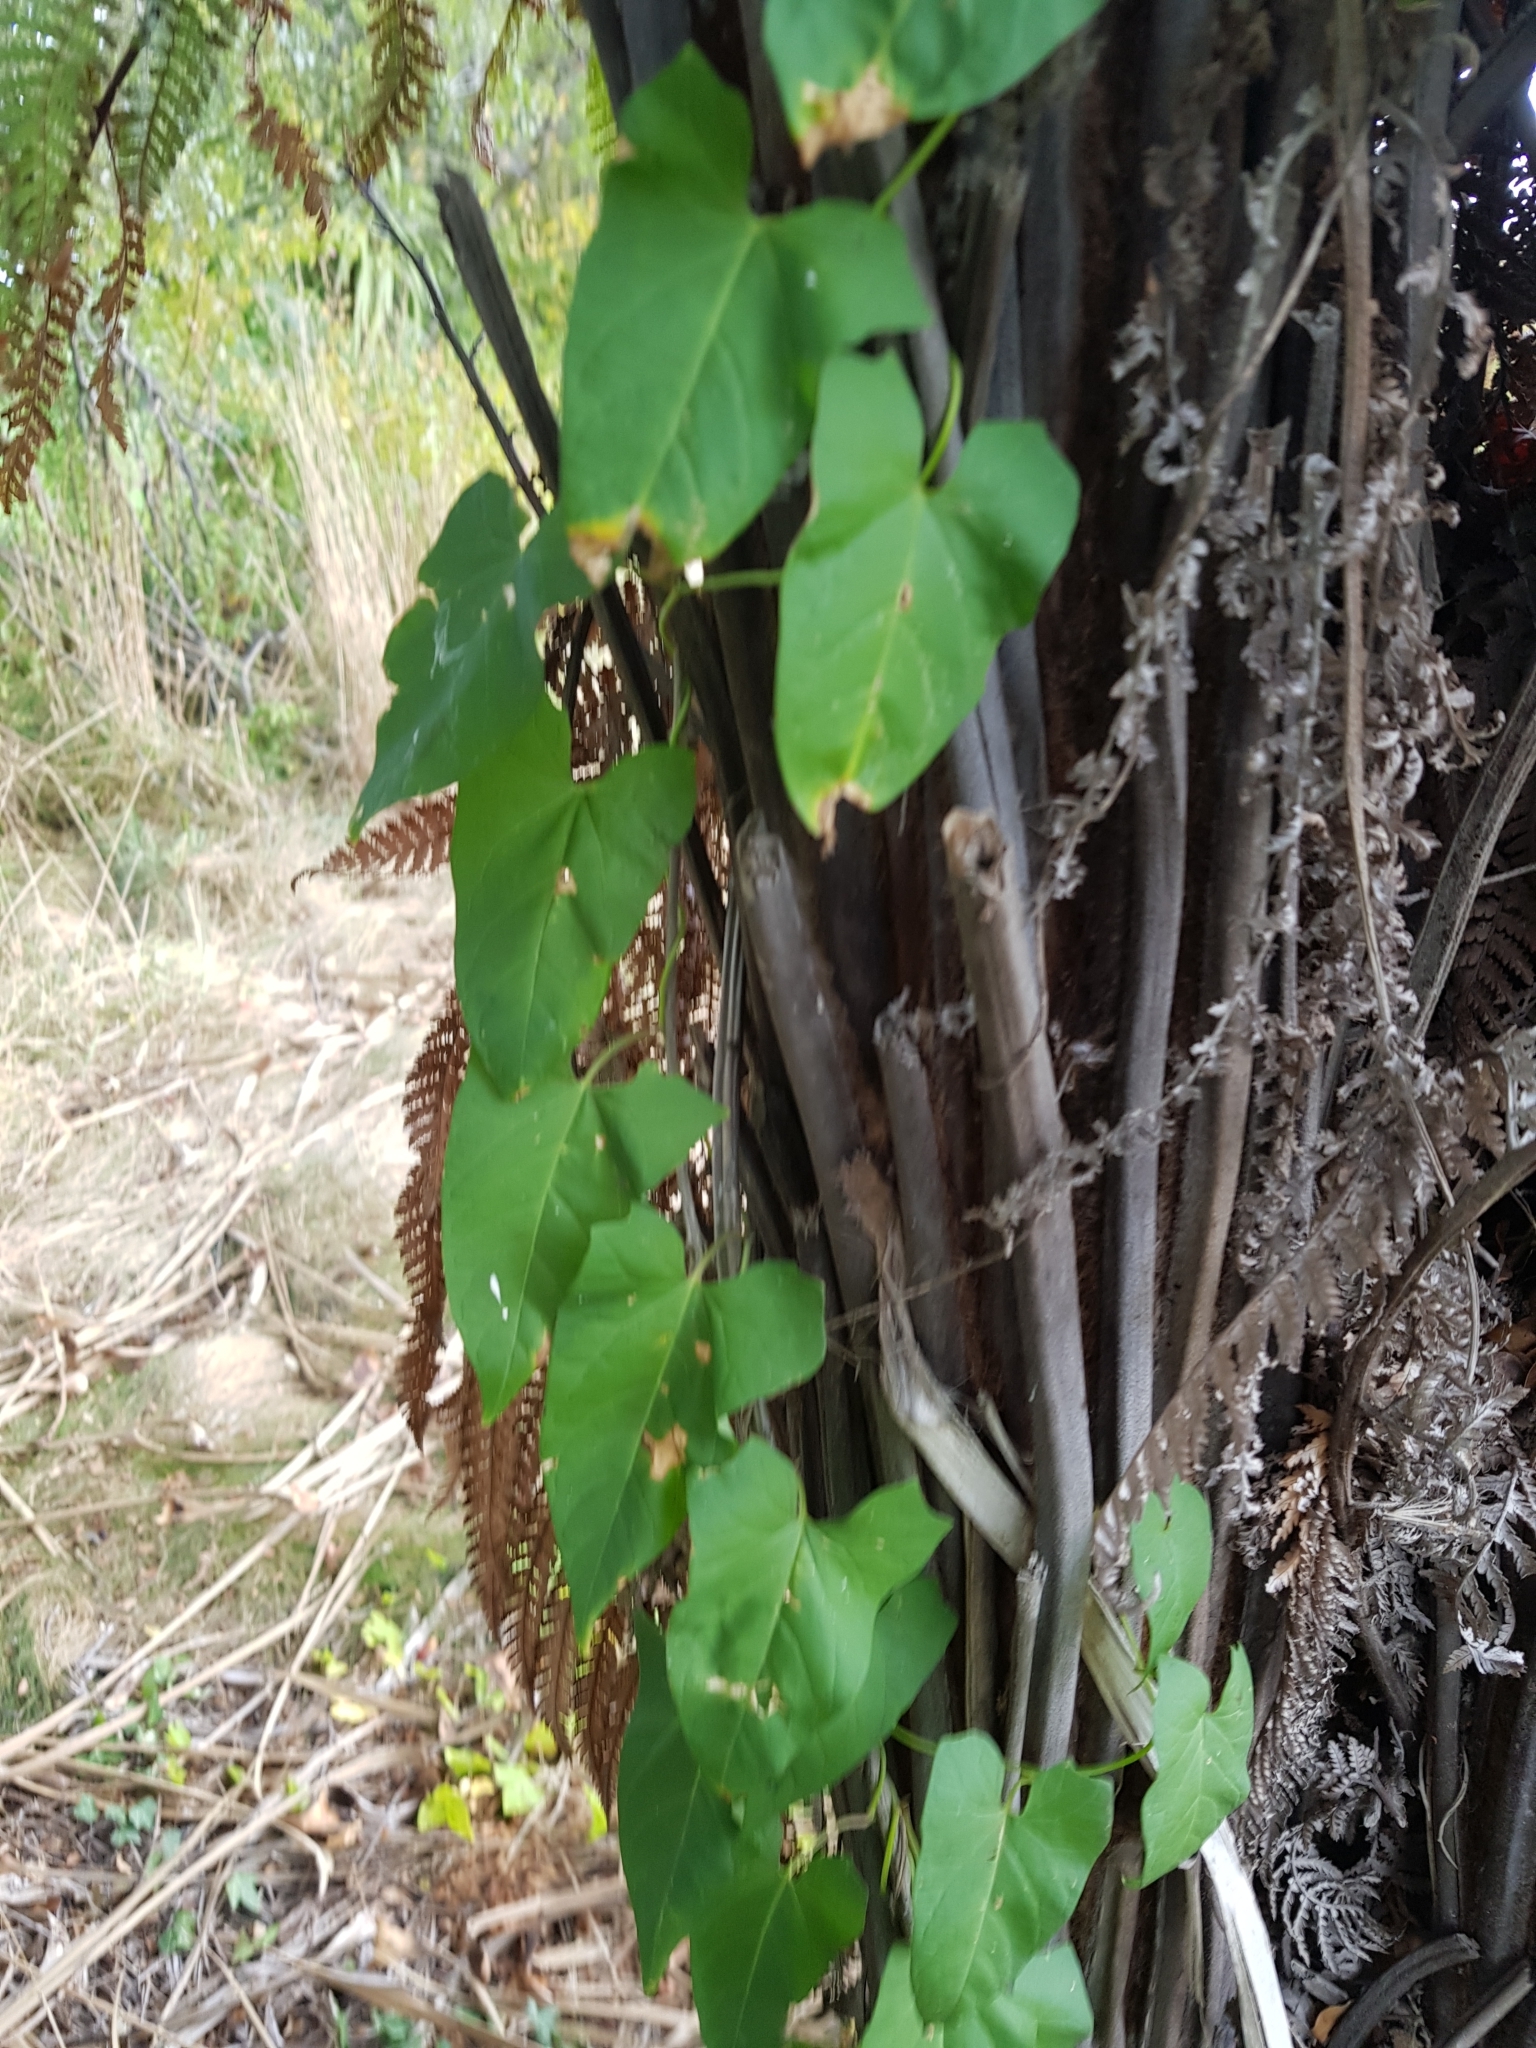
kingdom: Plantae
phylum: Tracheophyta
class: Magnoliopsida
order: Solanales
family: Convolvulaceae
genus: Calystegia
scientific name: Calystegia silvatica
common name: Large bindweed
